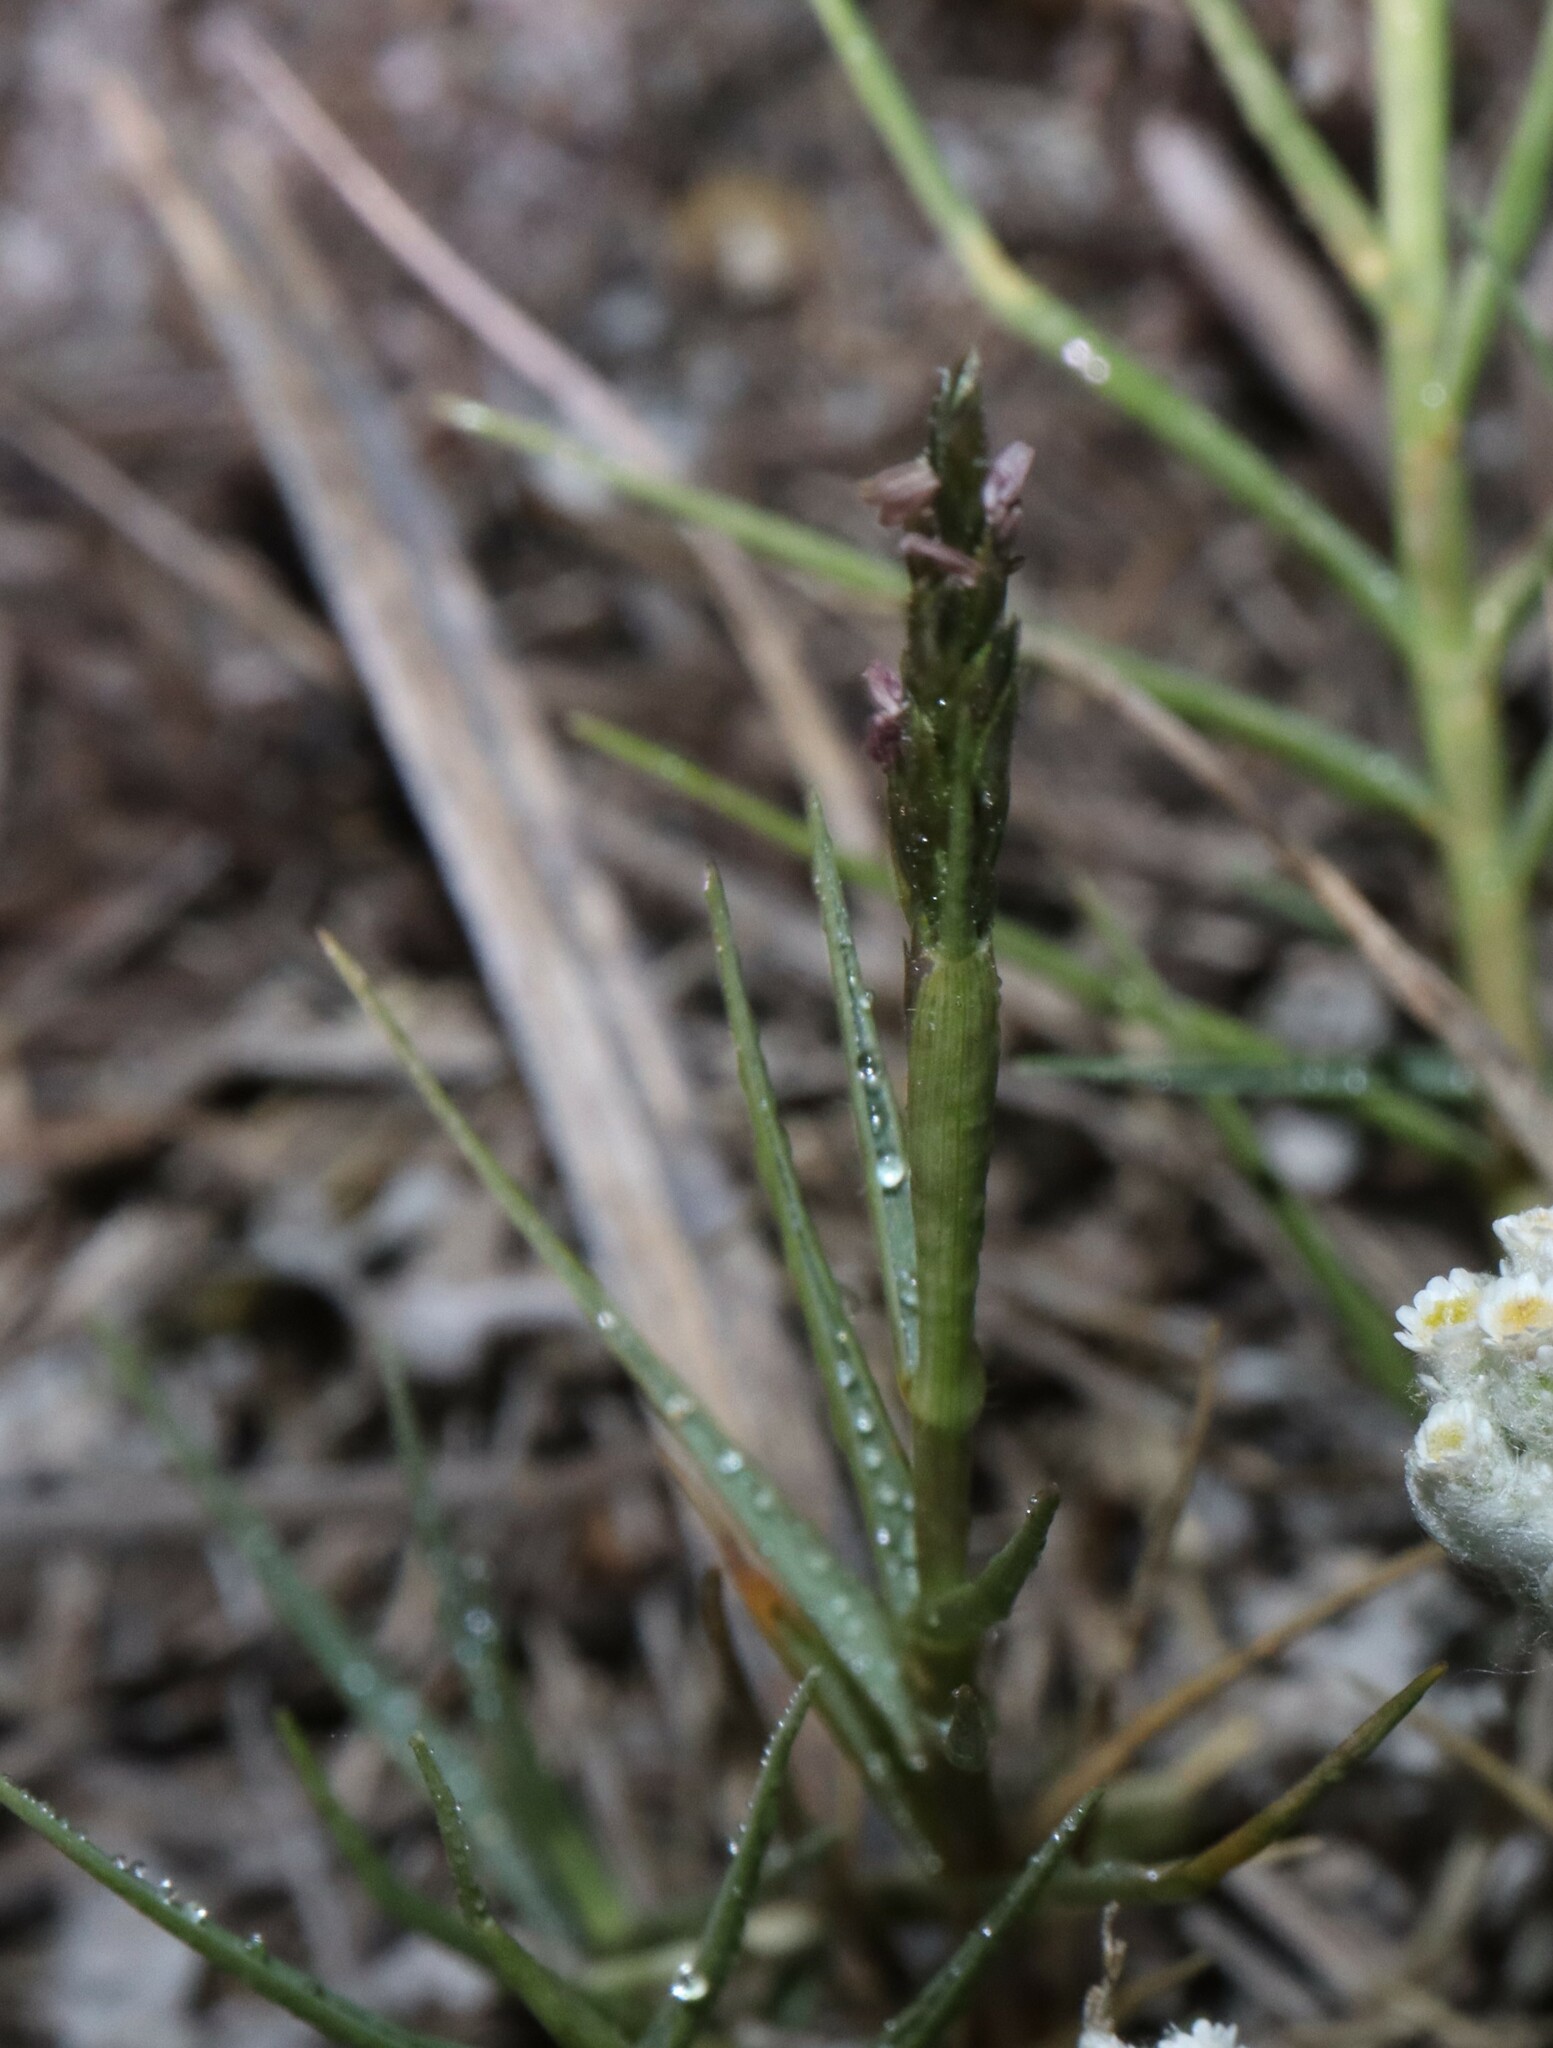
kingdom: Plantae
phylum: Tracheophyta
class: Liliopsida
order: Poales
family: Poaceae
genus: Distichlis
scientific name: Distichlis distichophylla
